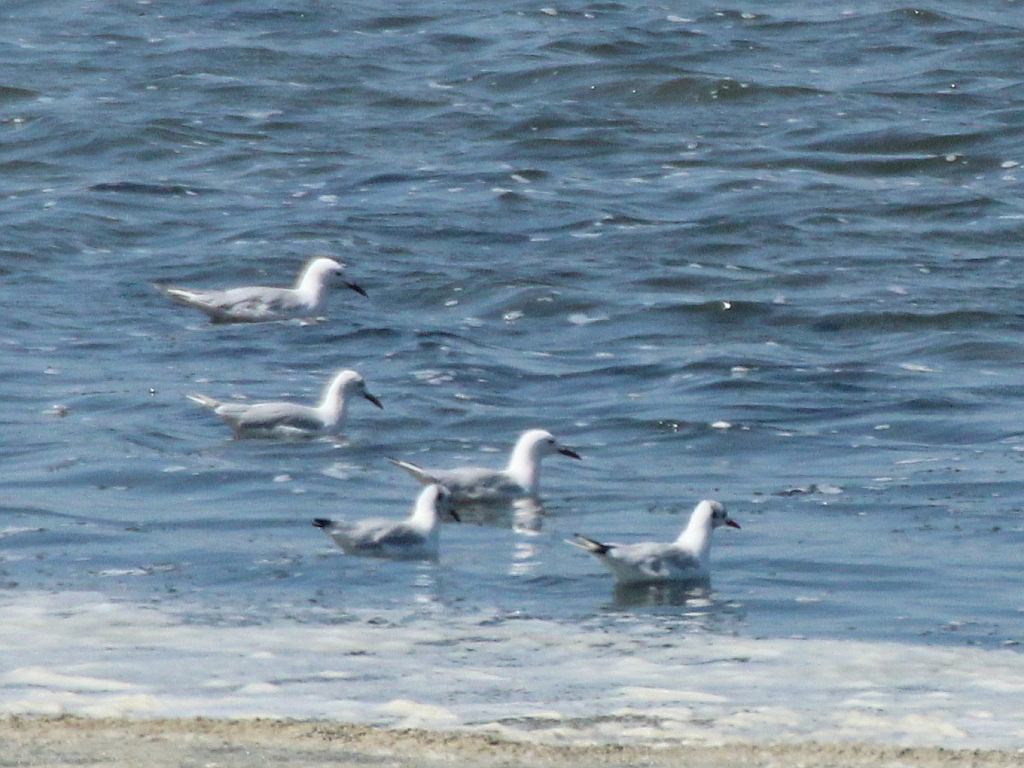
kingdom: Animalia
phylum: Chordata
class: Aves
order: Charadriiformes
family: Laridae
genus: Chroicocephalus
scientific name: Chroicocephalus genei
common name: Slender-billed gull
